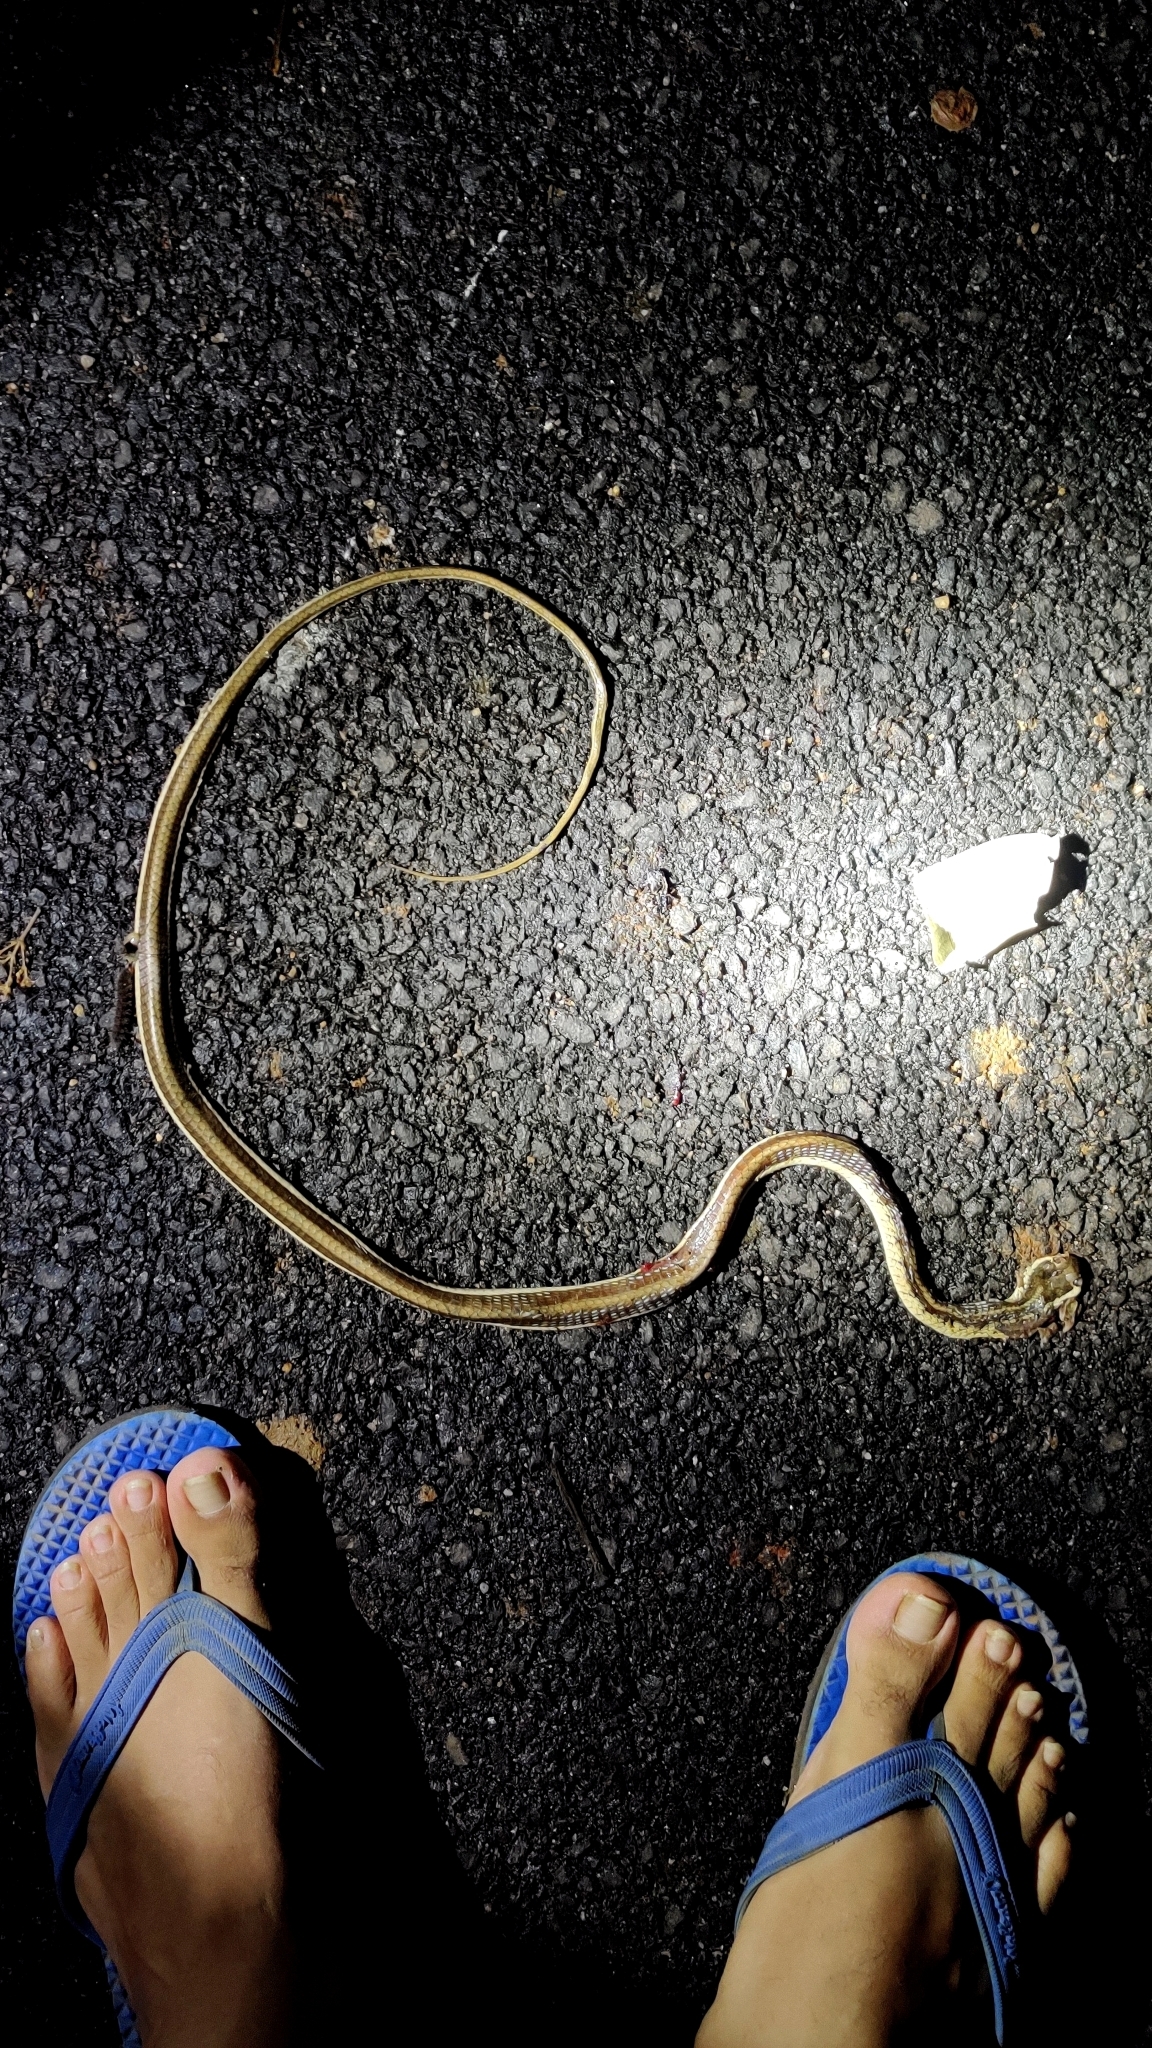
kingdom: Animalia
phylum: Chordata
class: Squamata
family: Colubridae
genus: Dendrelaphis
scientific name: Dendrelaphis tristis
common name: Daudin's bronzeback
